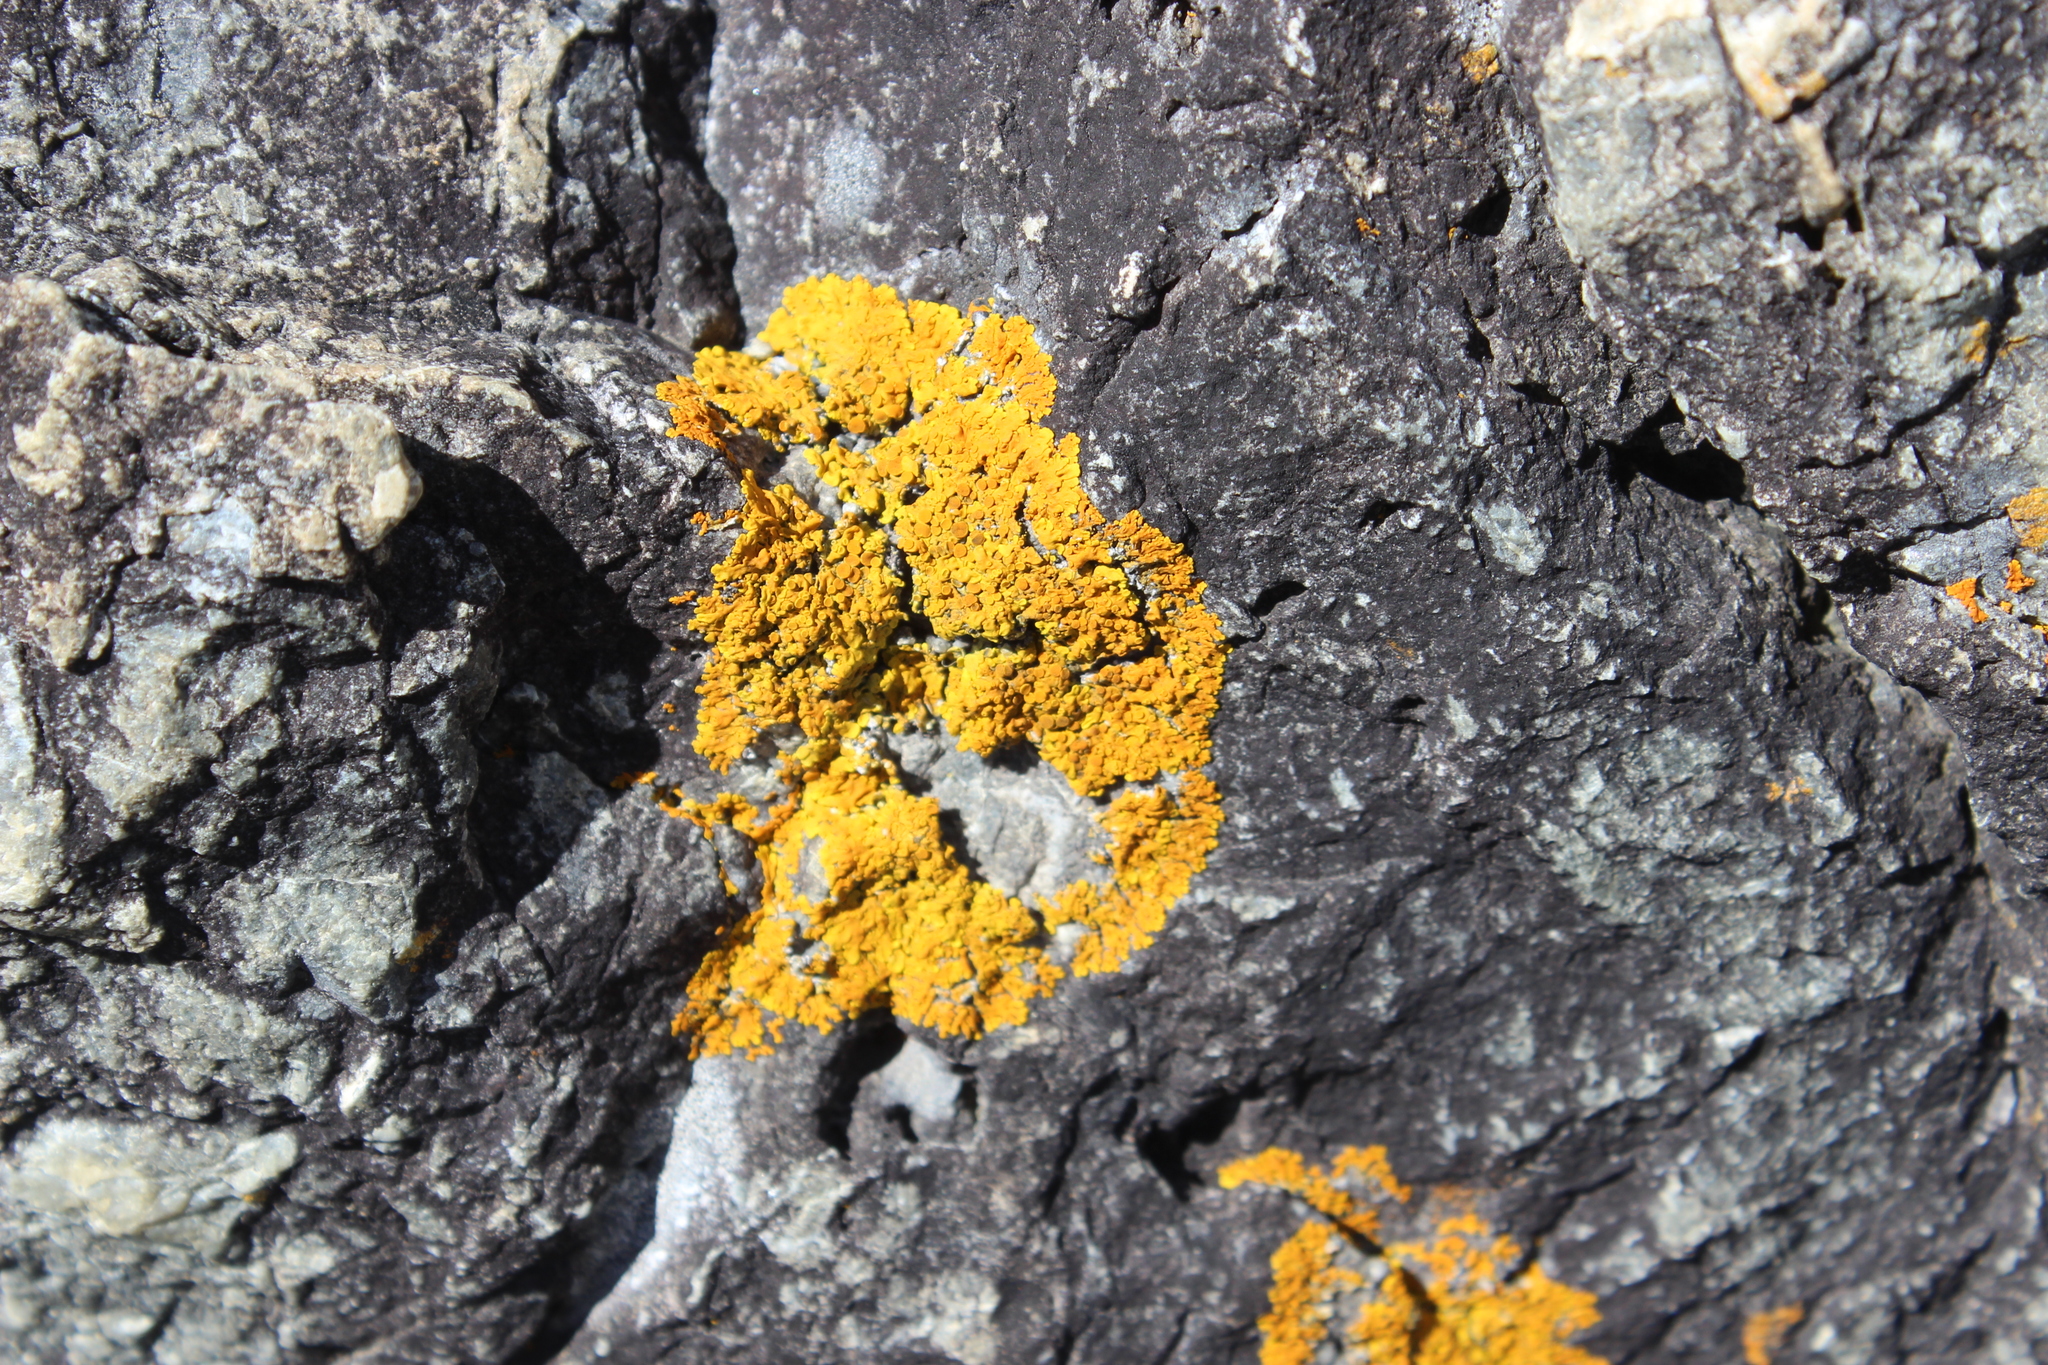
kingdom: Fungi
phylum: Ascomycota
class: Lecanoromycetes
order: Teloschistales
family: Teloschistaceae
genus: Dufourea
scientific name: Dufourea ligulata
